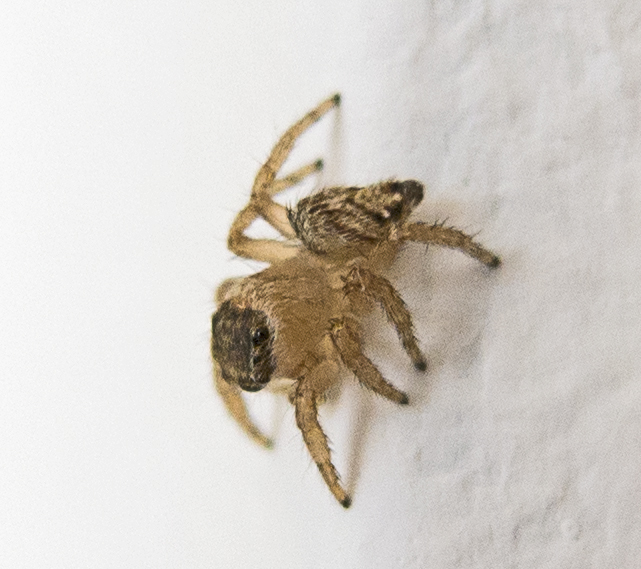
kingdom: Animalia
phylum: Arthropoda
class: Arachnida
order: Araneae
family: Salticidae
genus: Evarcha
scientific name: Evarcha jucunda
